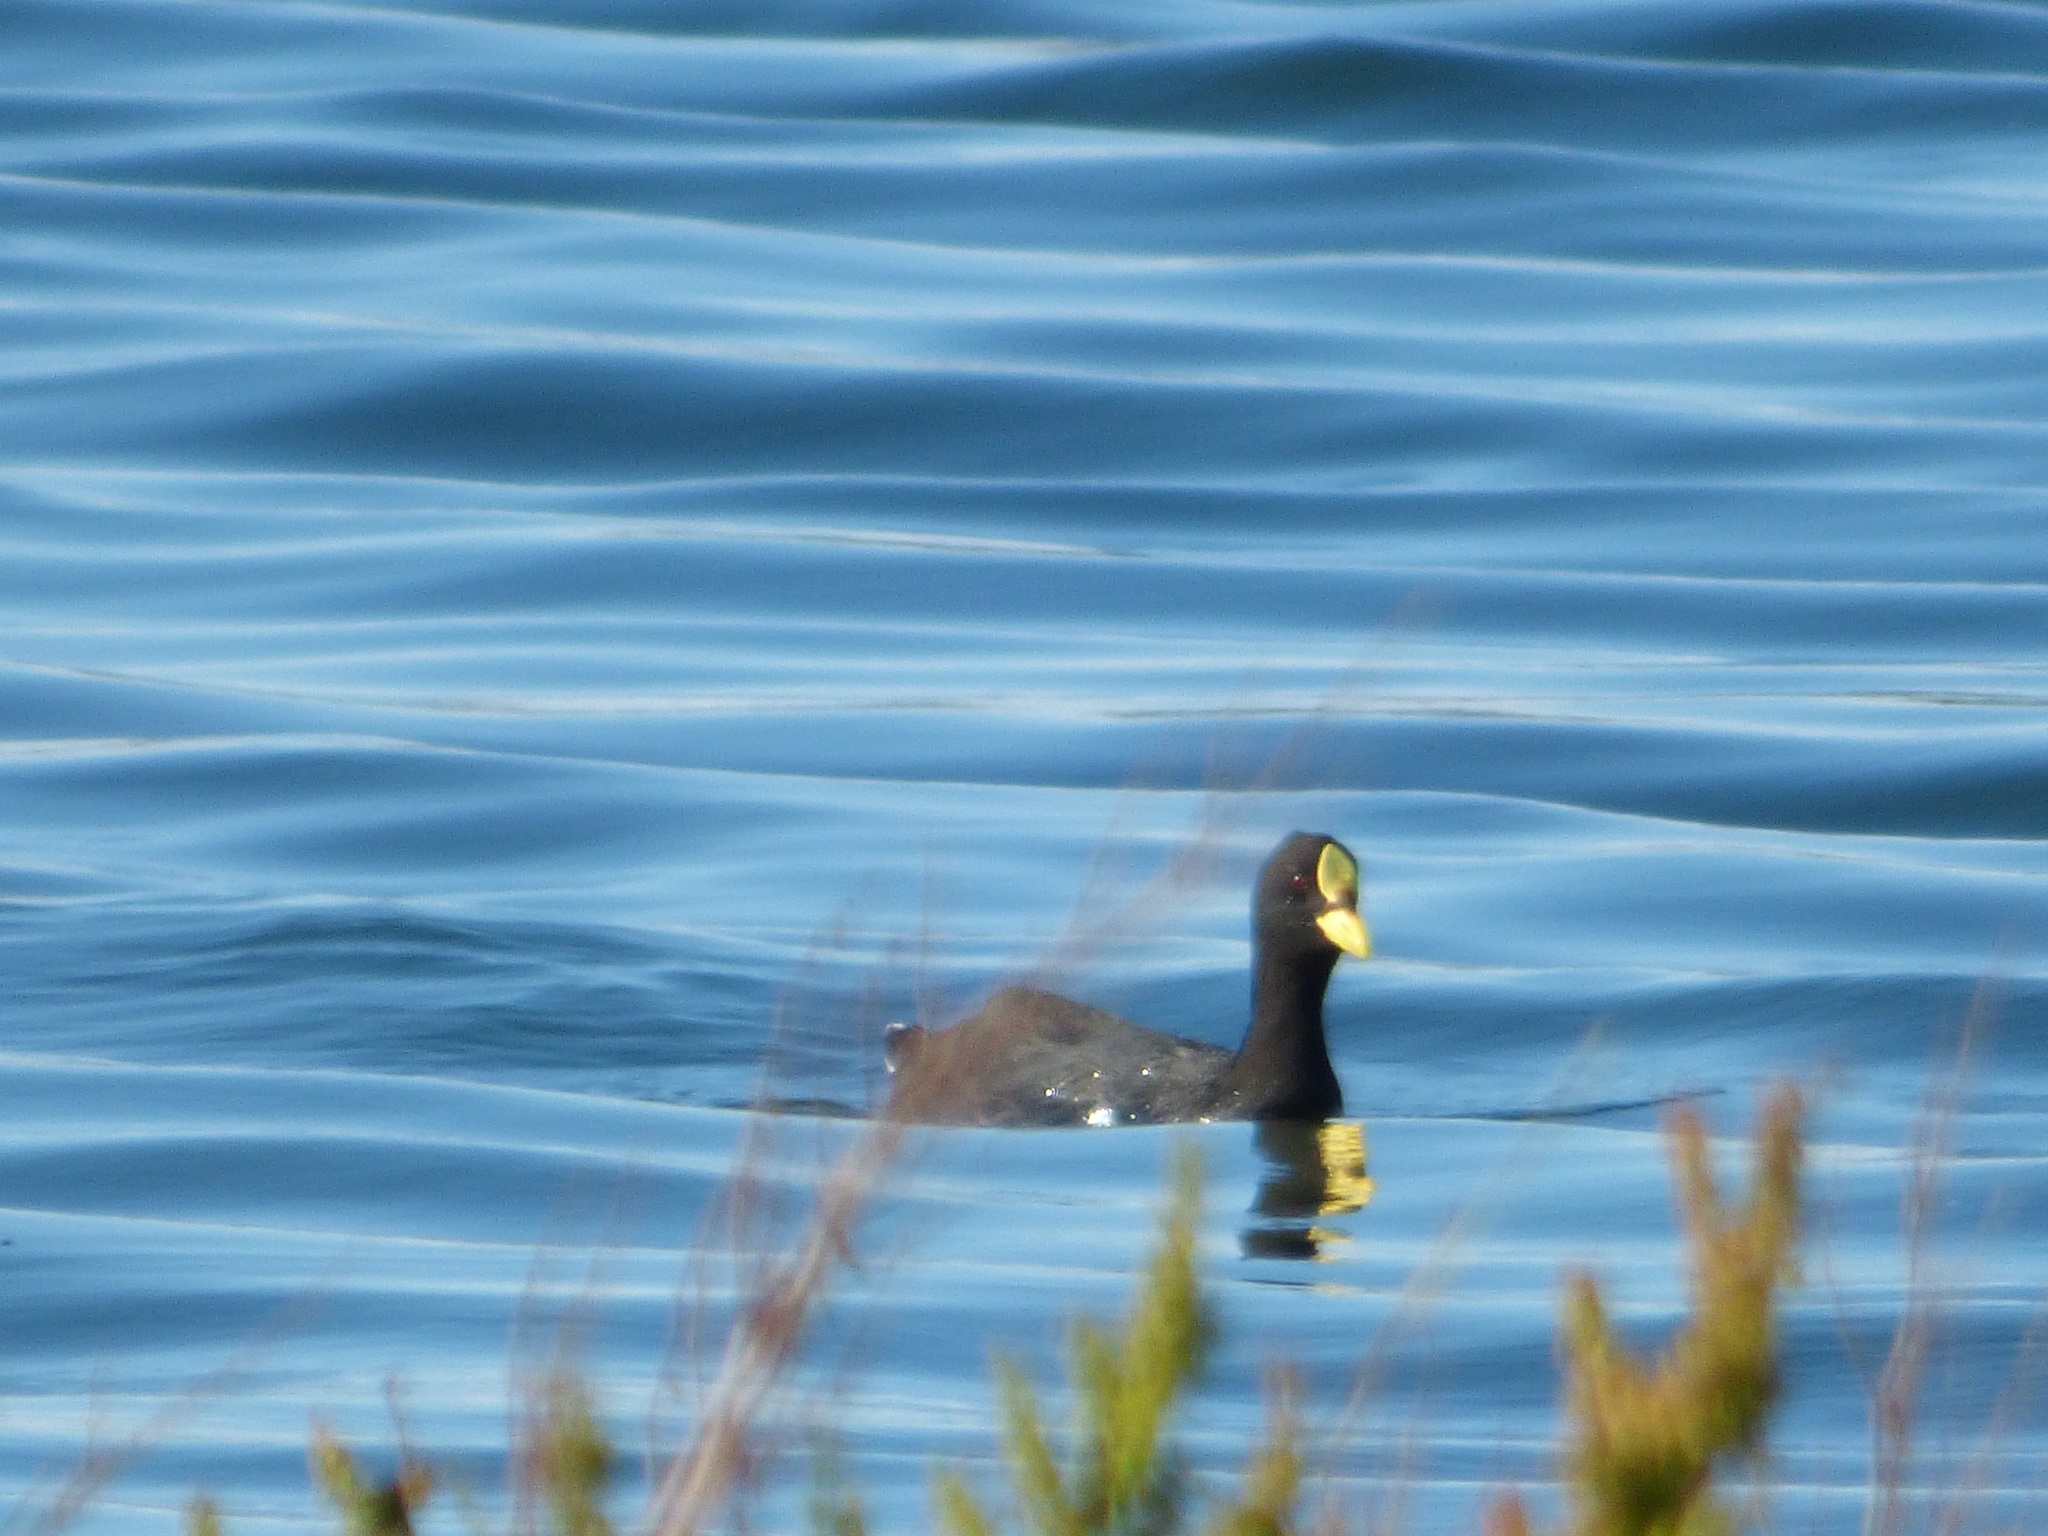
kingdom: Animalia
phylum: Chordata
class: Aves
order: Gruiformes
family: Rallidae
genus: Fulica
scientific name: Fulica armillata
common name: Red-gartered coot
